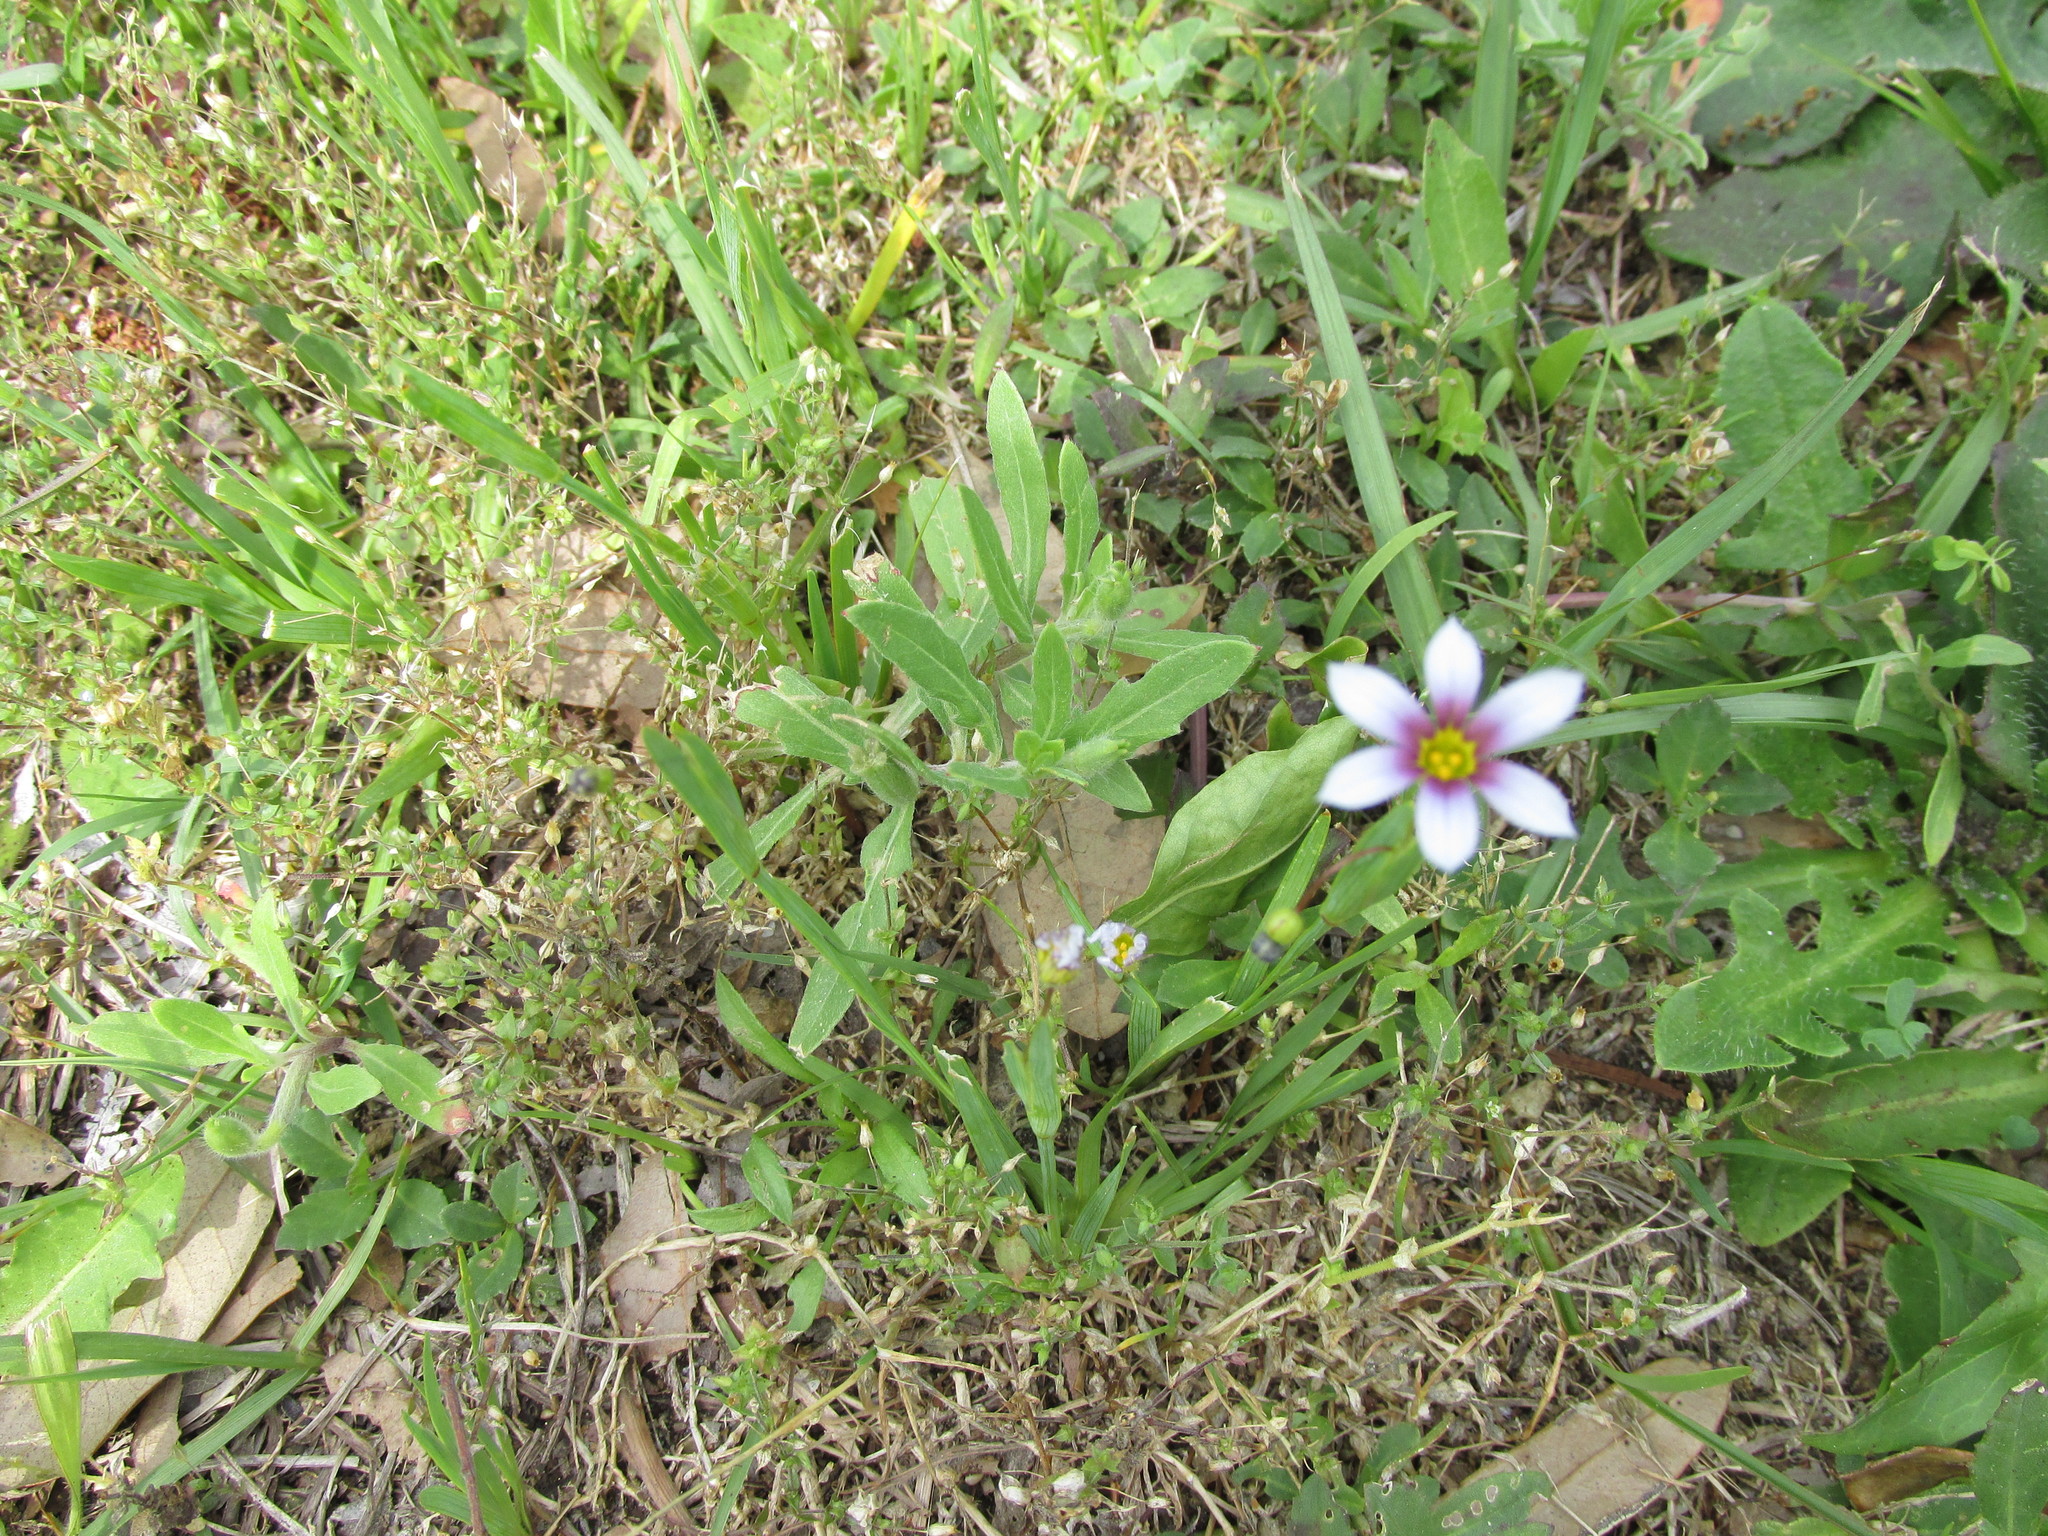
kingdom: Plantae
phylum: Tracheophyta
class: Liliopsida
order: Asparagales
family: Iridaceae
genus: Sisyrinchium
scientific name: Sisyrinchium micranthum
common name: Bermuda pigroot
